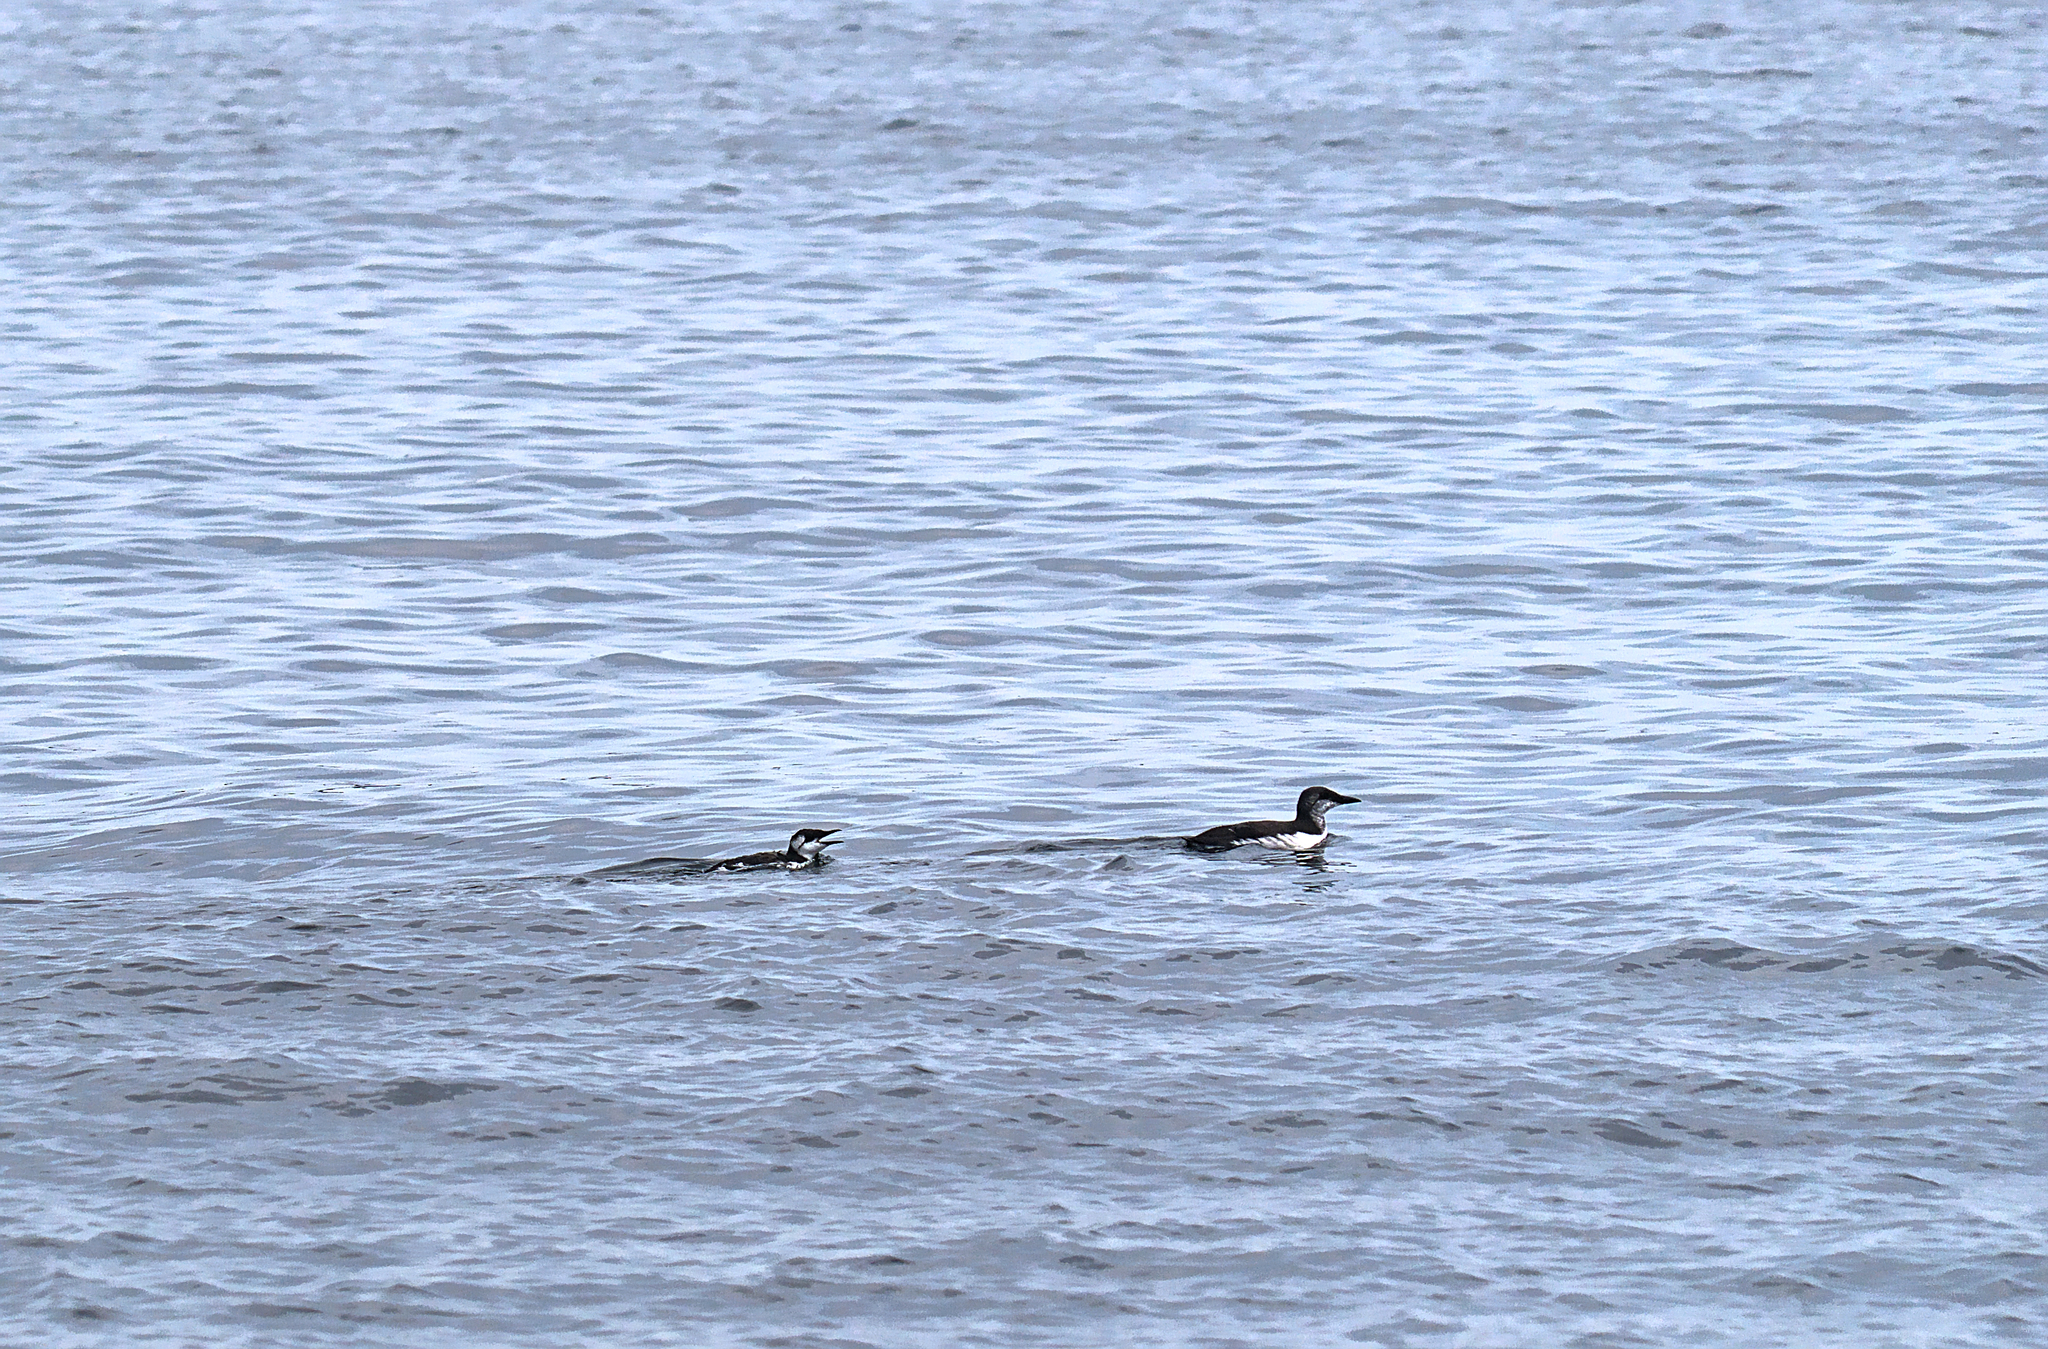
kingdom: Animalia
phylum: Chordata
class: Aves
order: Charadriiformes
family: Alcidae
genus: Uria
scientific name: Uria aalge
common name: Common murre
